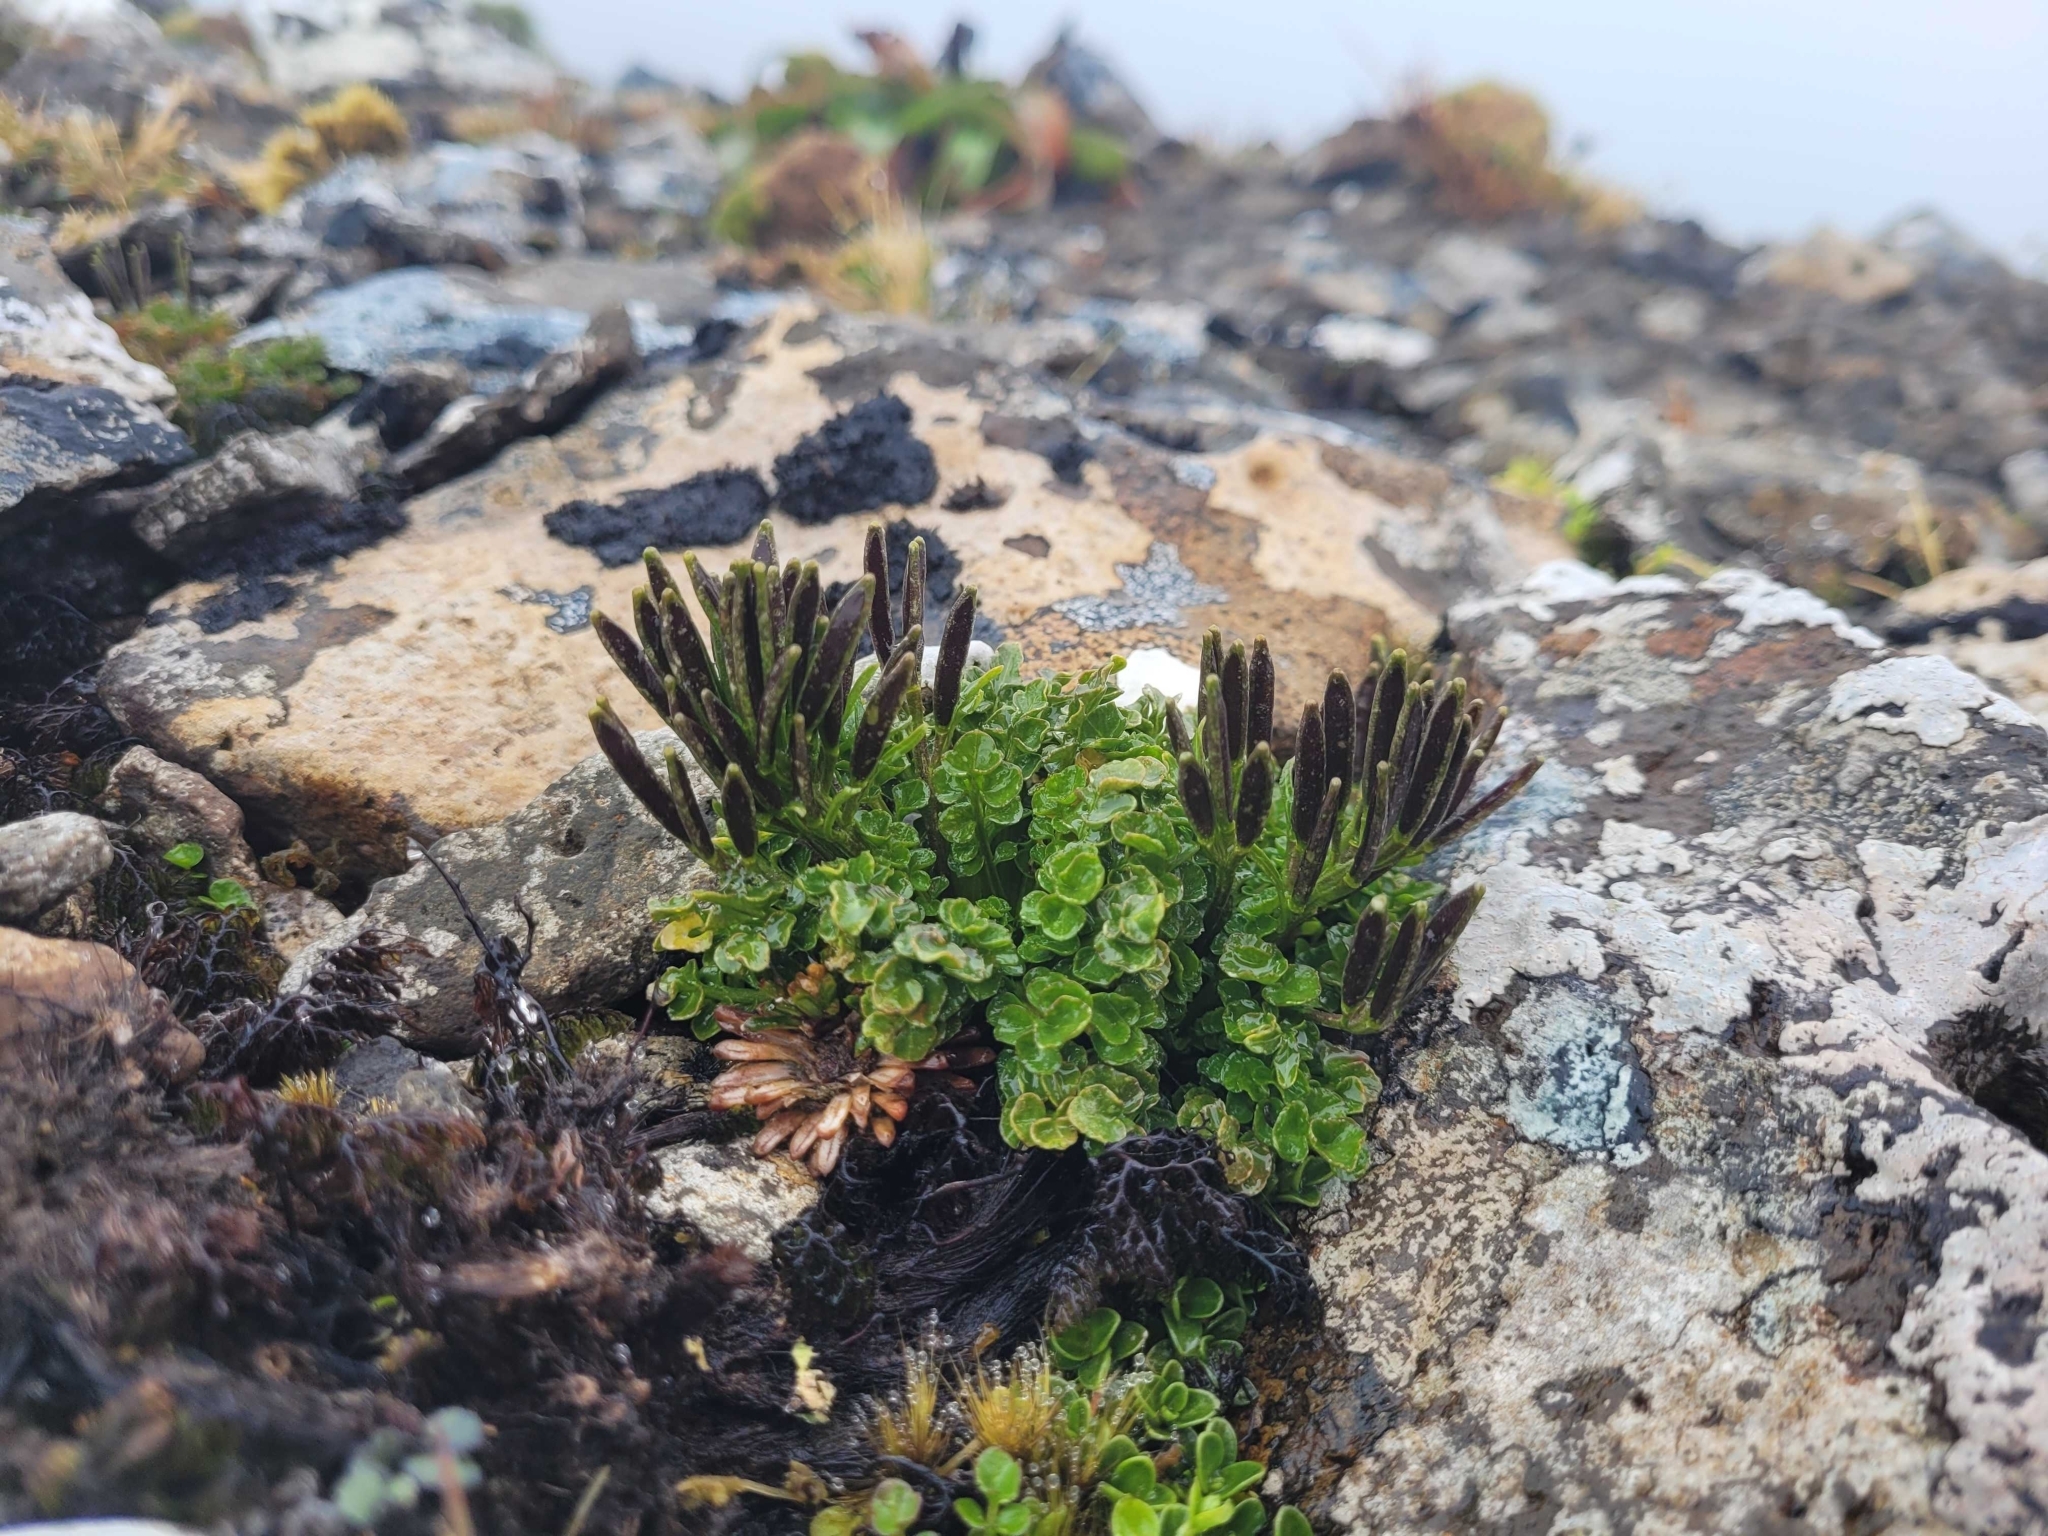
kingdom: Plantae
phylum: Tracheophyta
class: Magnoliopsida
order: Brassicales
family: Brassicaceae
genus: Cardamine
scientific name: Cardamine latior
